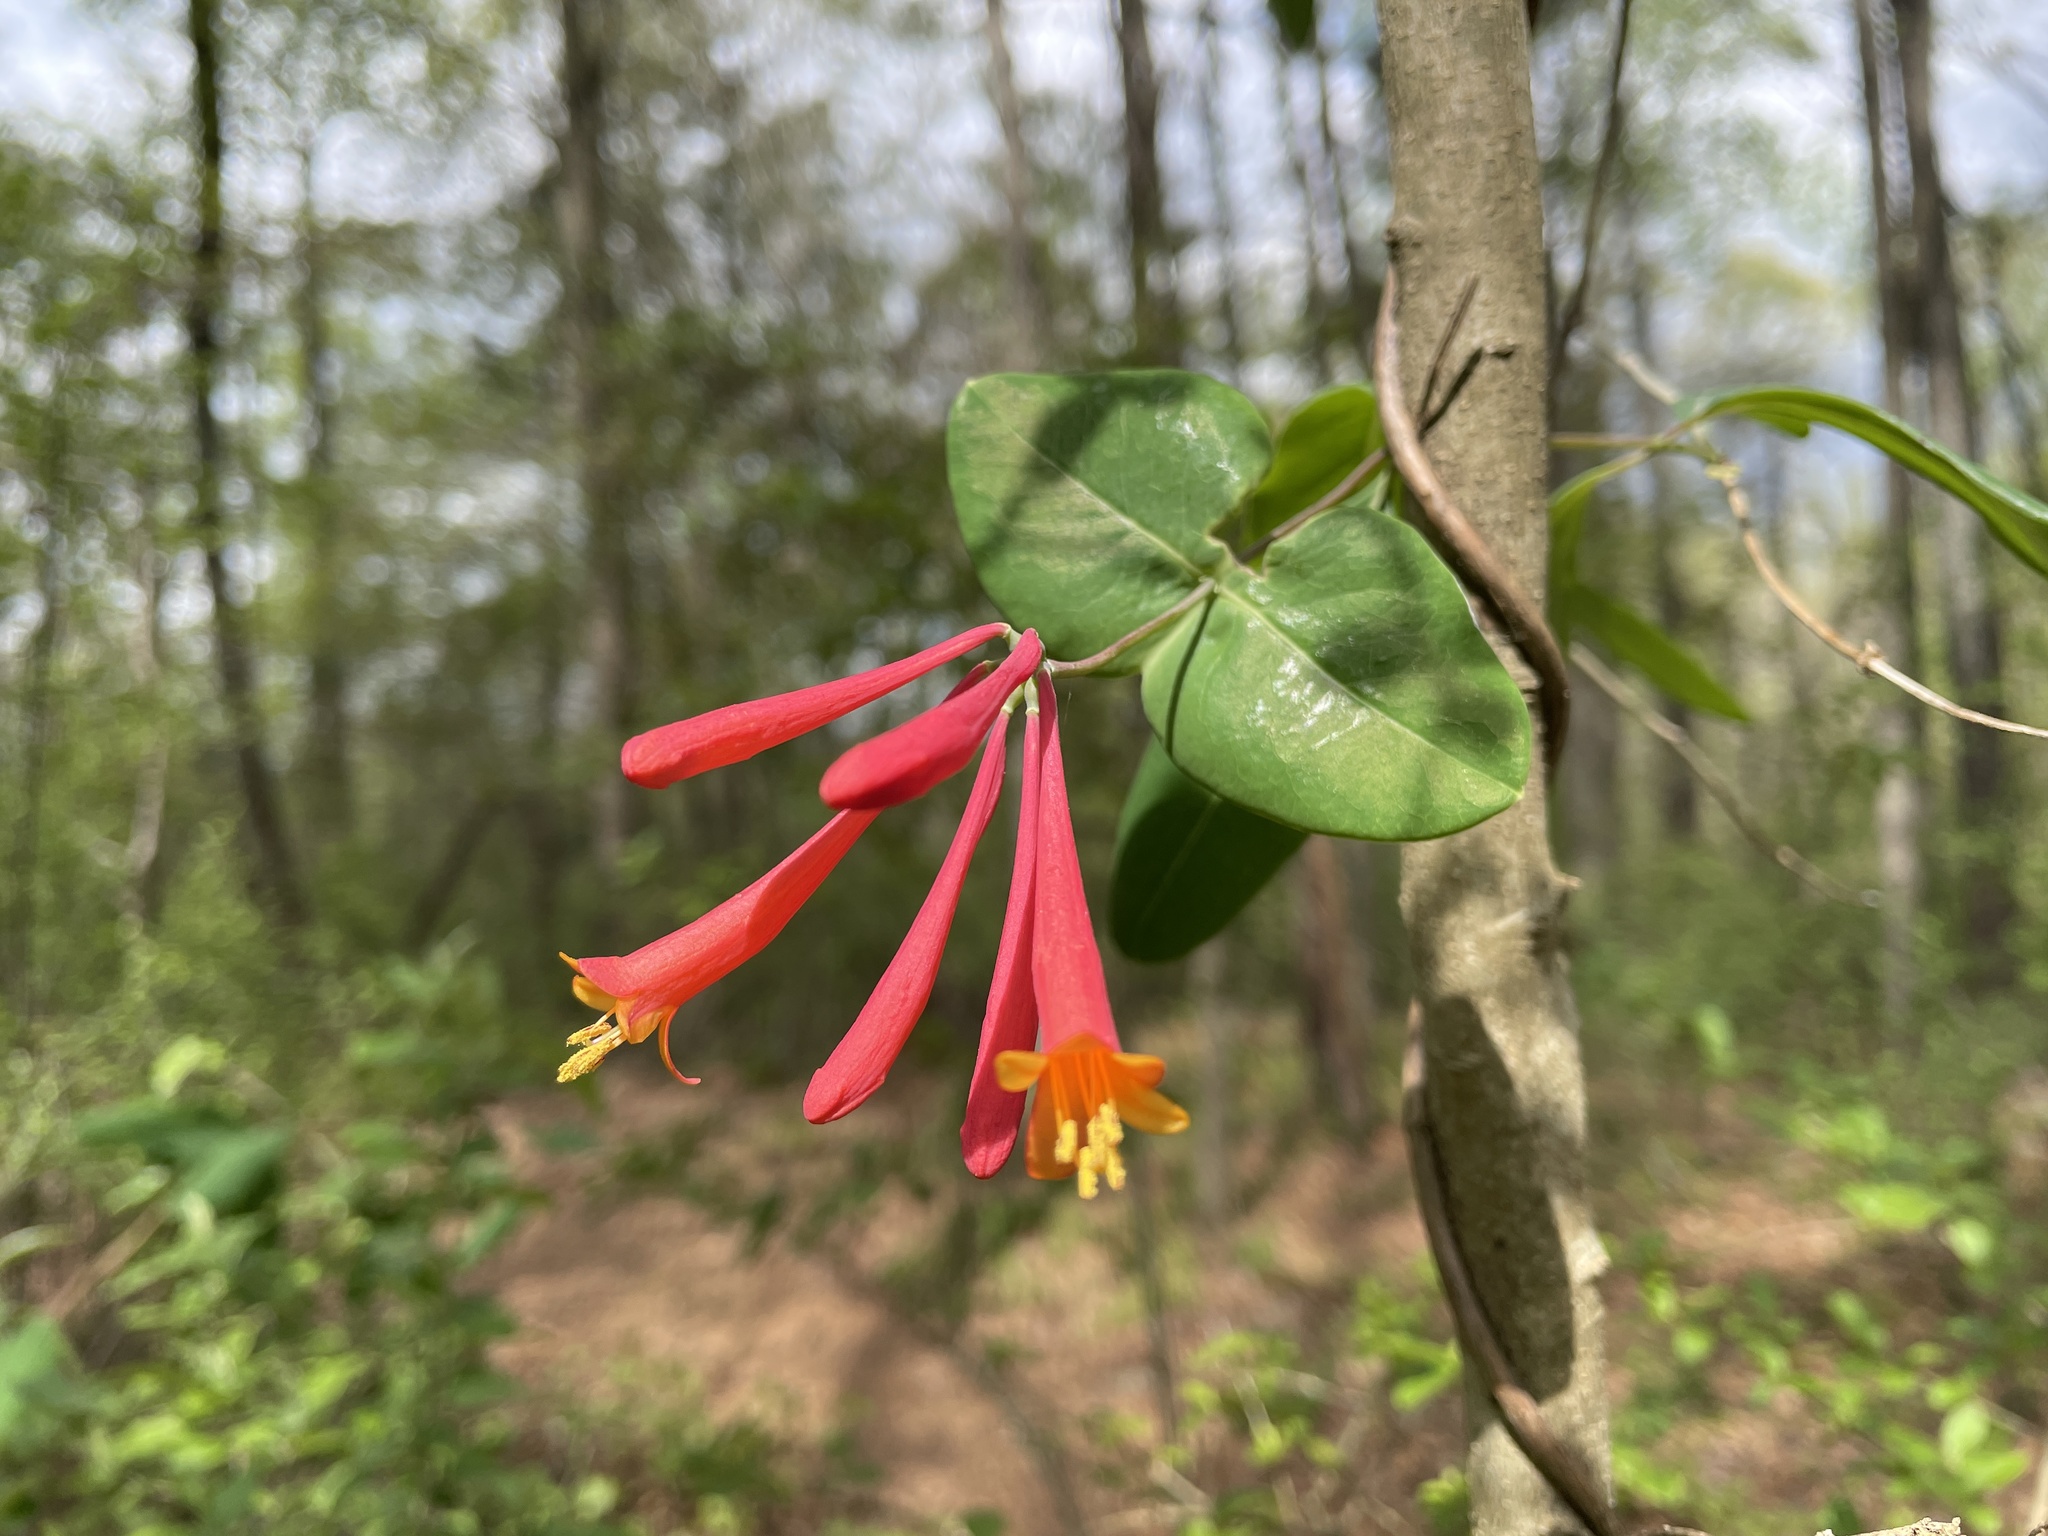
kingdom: Plantae
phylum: Tracheophyta
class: Magnoliopsida
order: Dipsacales
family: Caprifoliaceae
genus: Lonicera
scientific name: Lonicera sempervirens
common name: Coral honeysuckle
